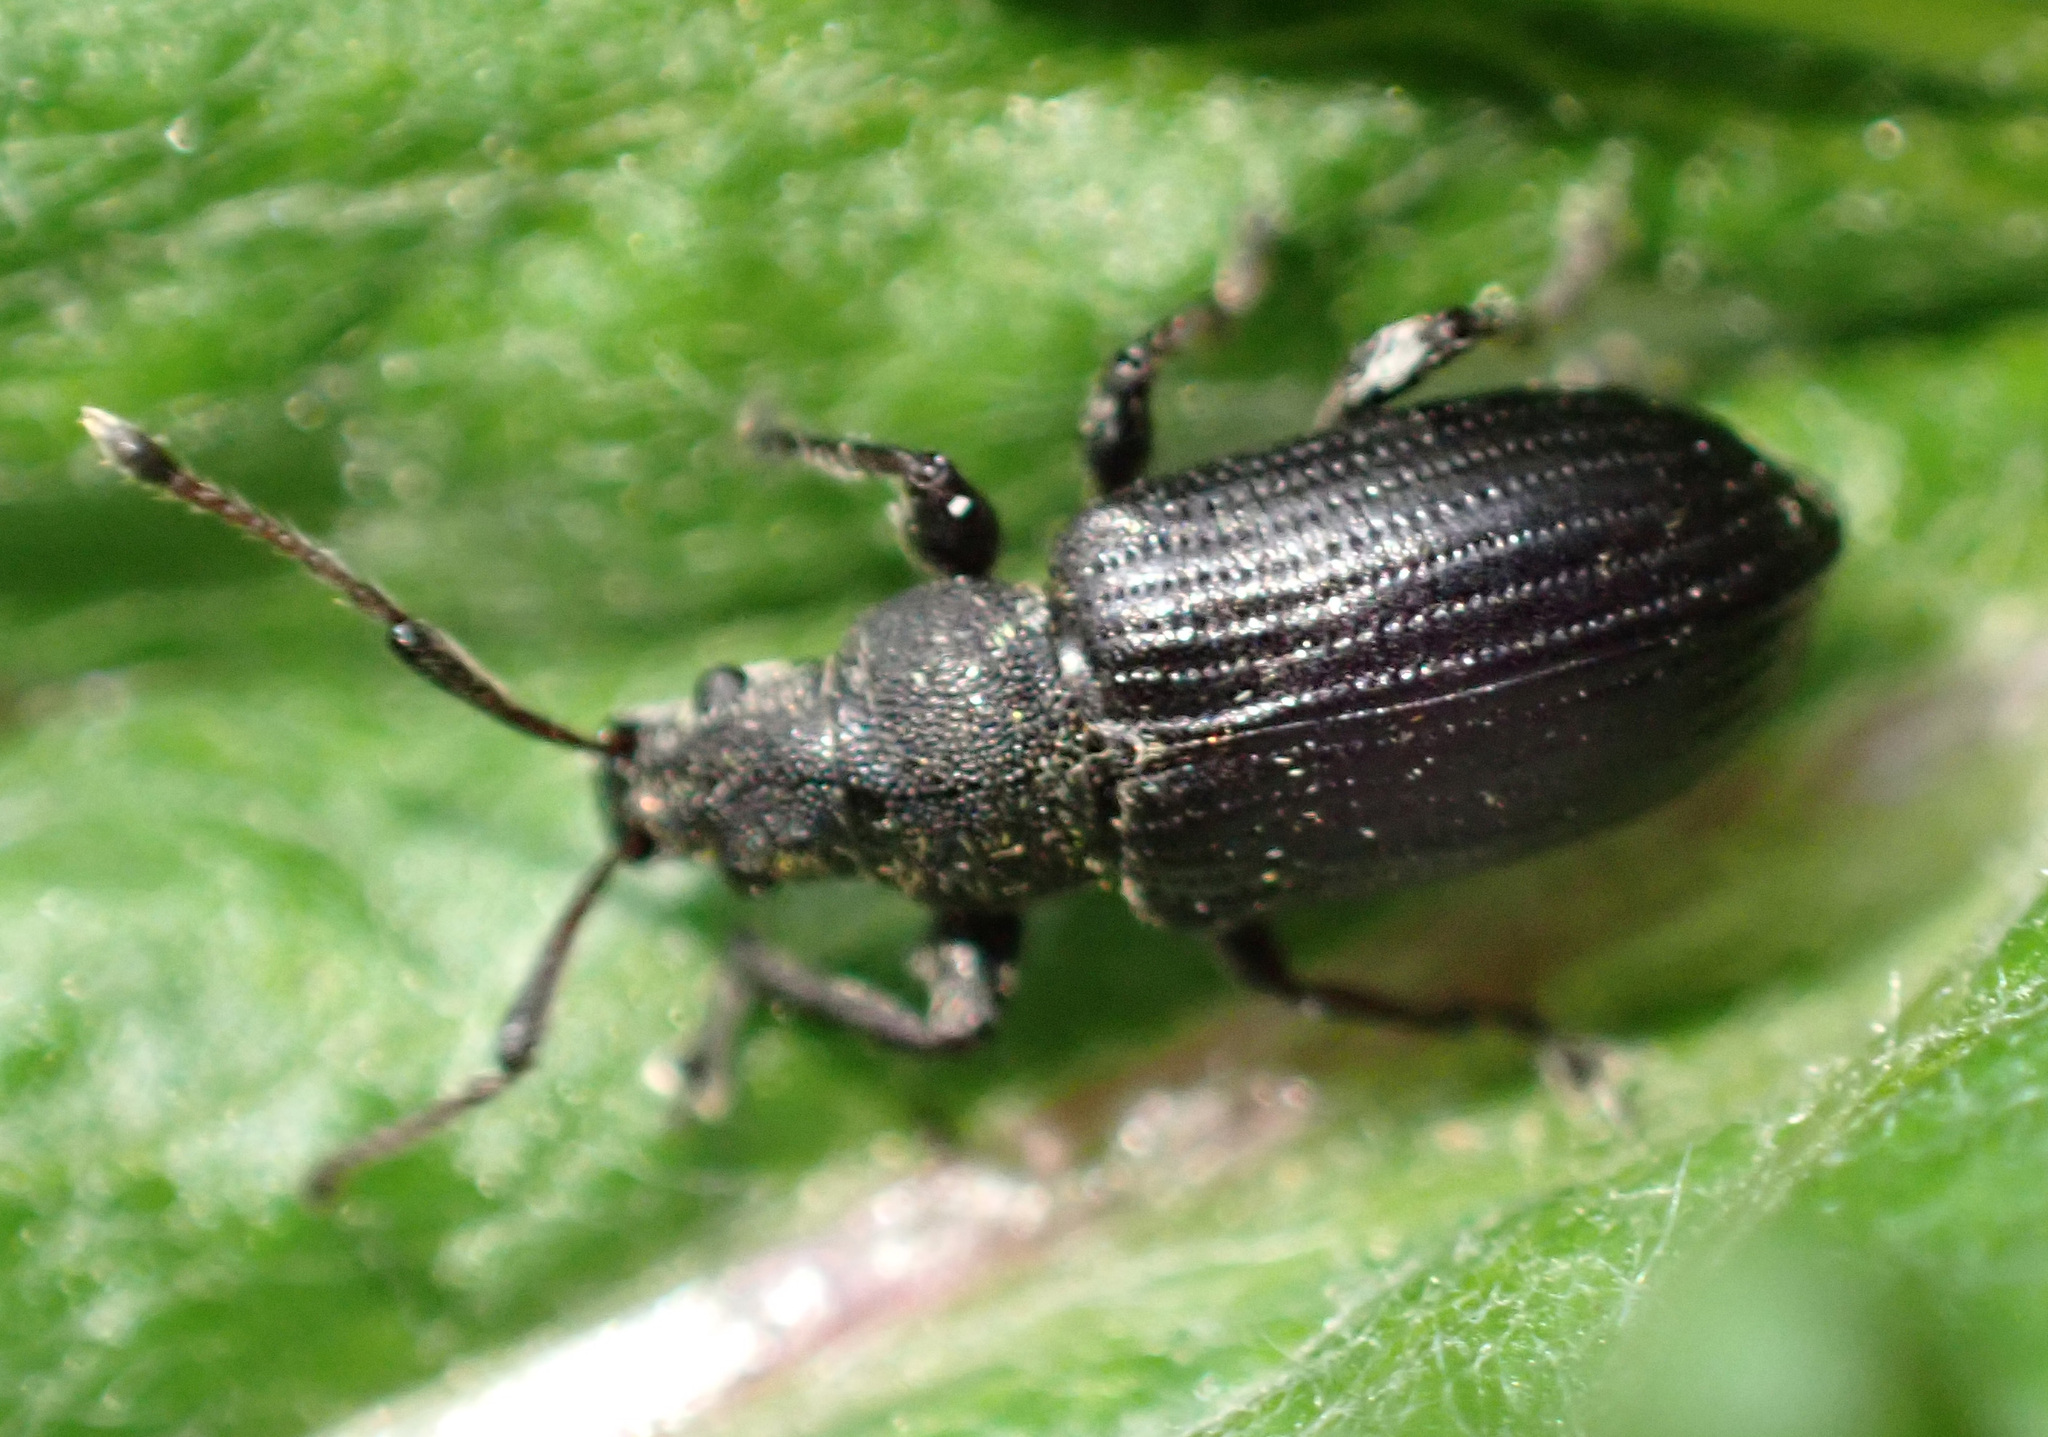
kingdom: Animalia
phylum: Arthropoda
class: Insecta
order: Coleoptera
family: Curculionidae
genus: Phyllobius
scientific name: Phyllobius pyri
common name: Common leaf weevil
